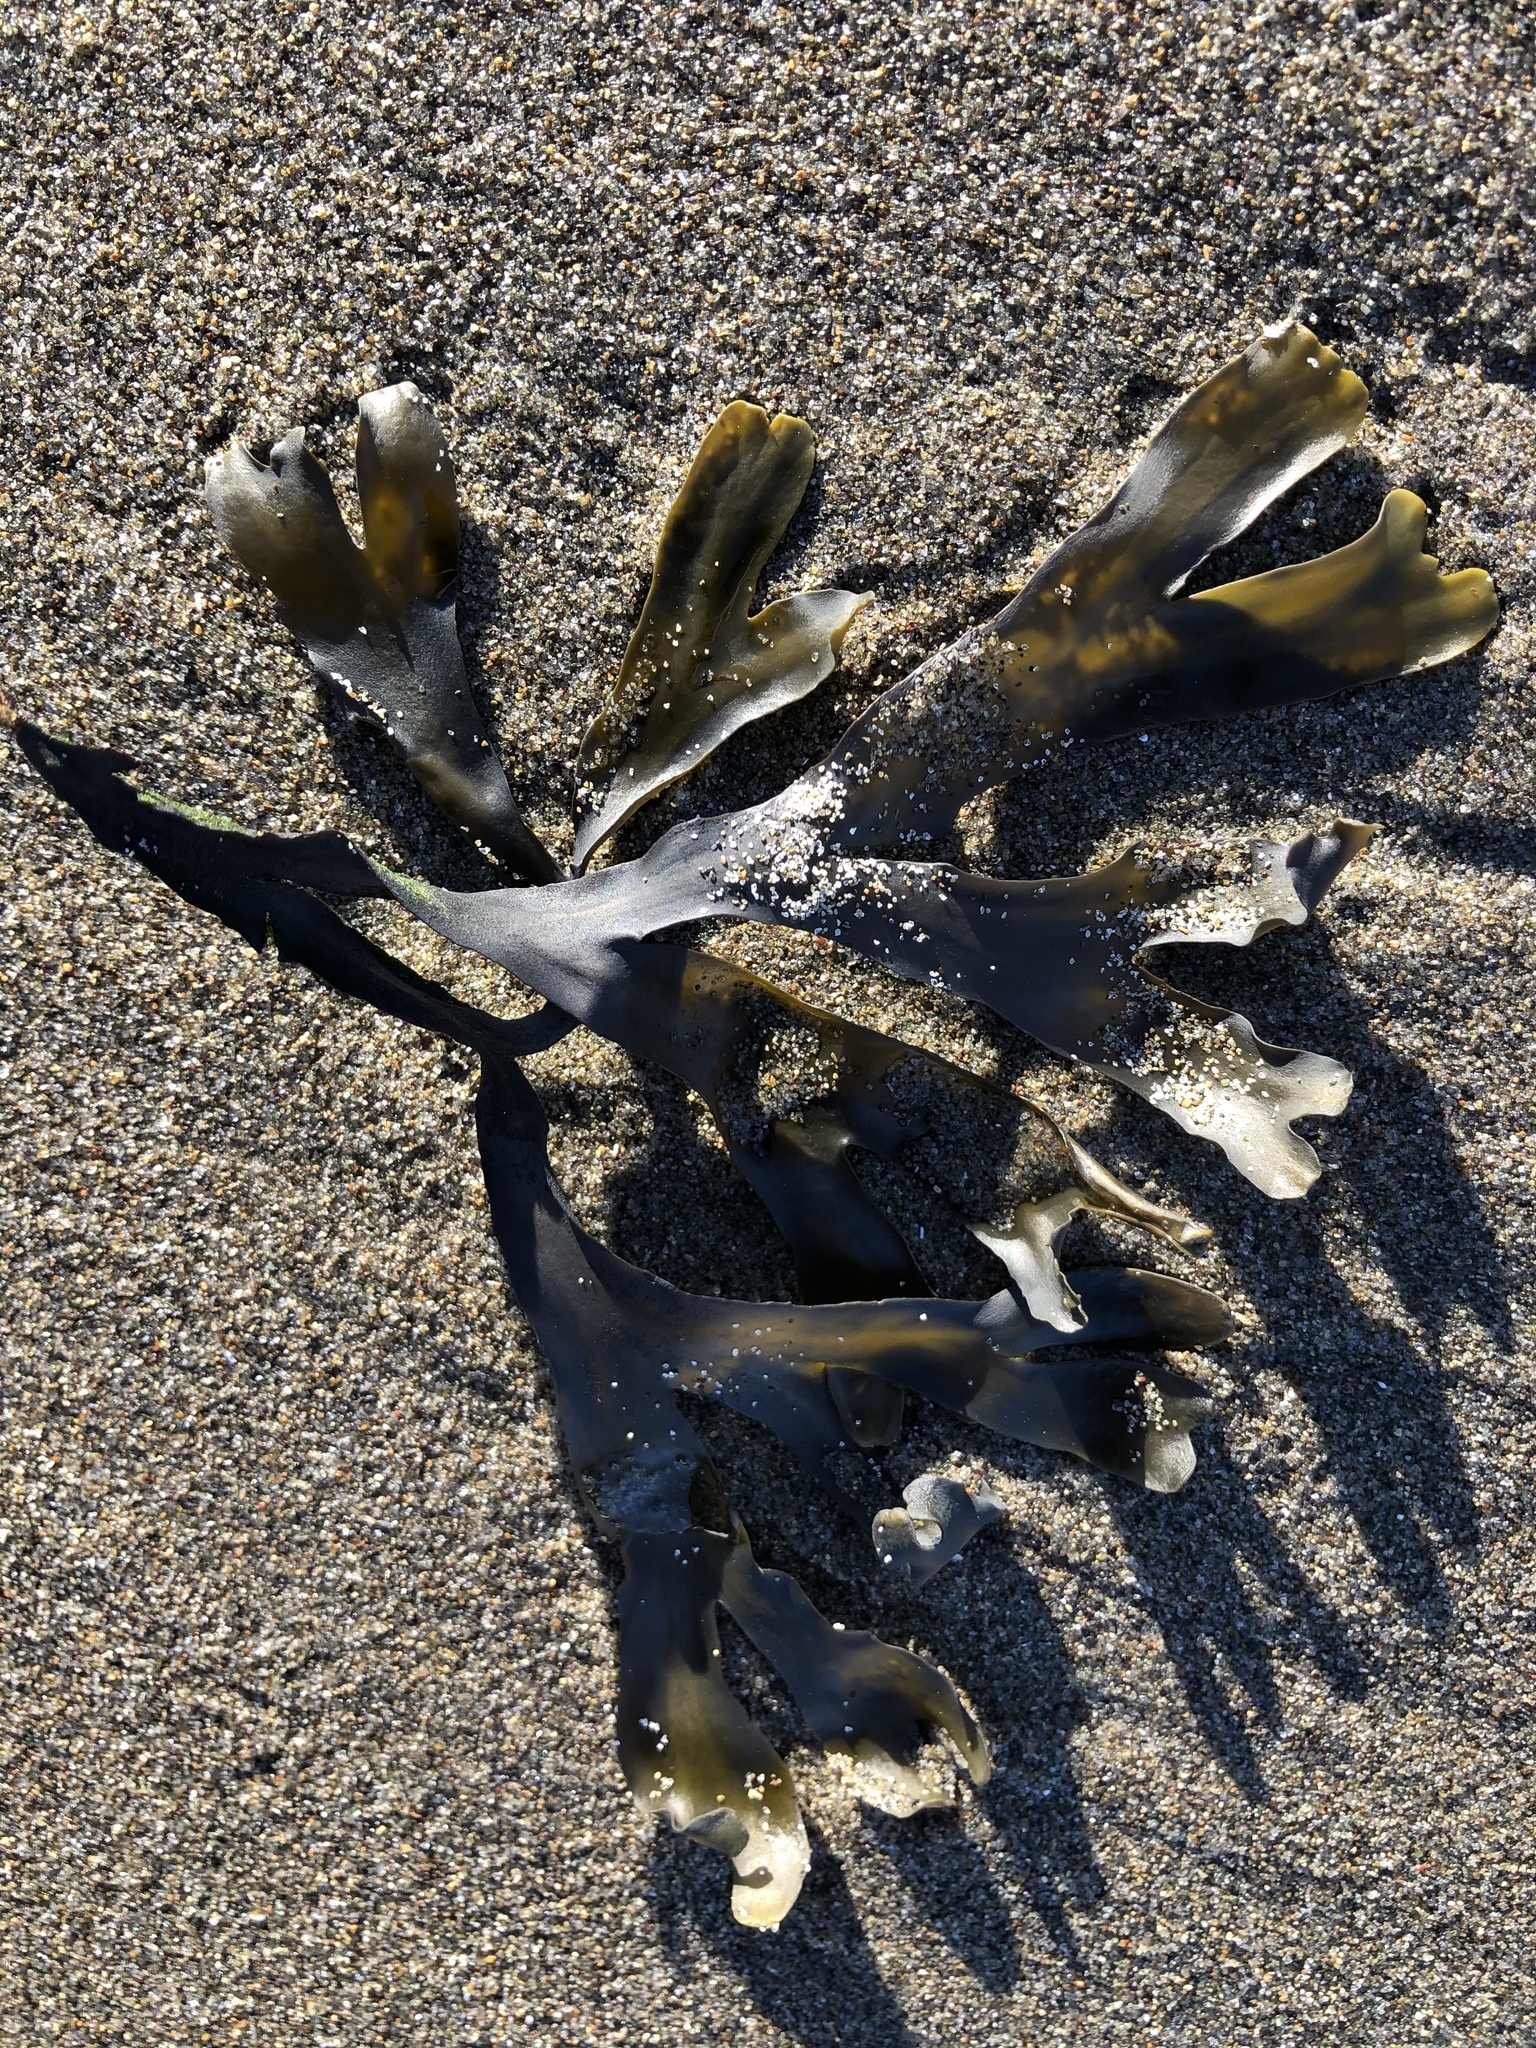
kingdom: Chromista
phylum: Ochrophyta
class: Phaeophyceae
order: Fucales
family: Fucaceae
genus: Fucus
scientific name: Fucus distichus
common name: Rockweed
